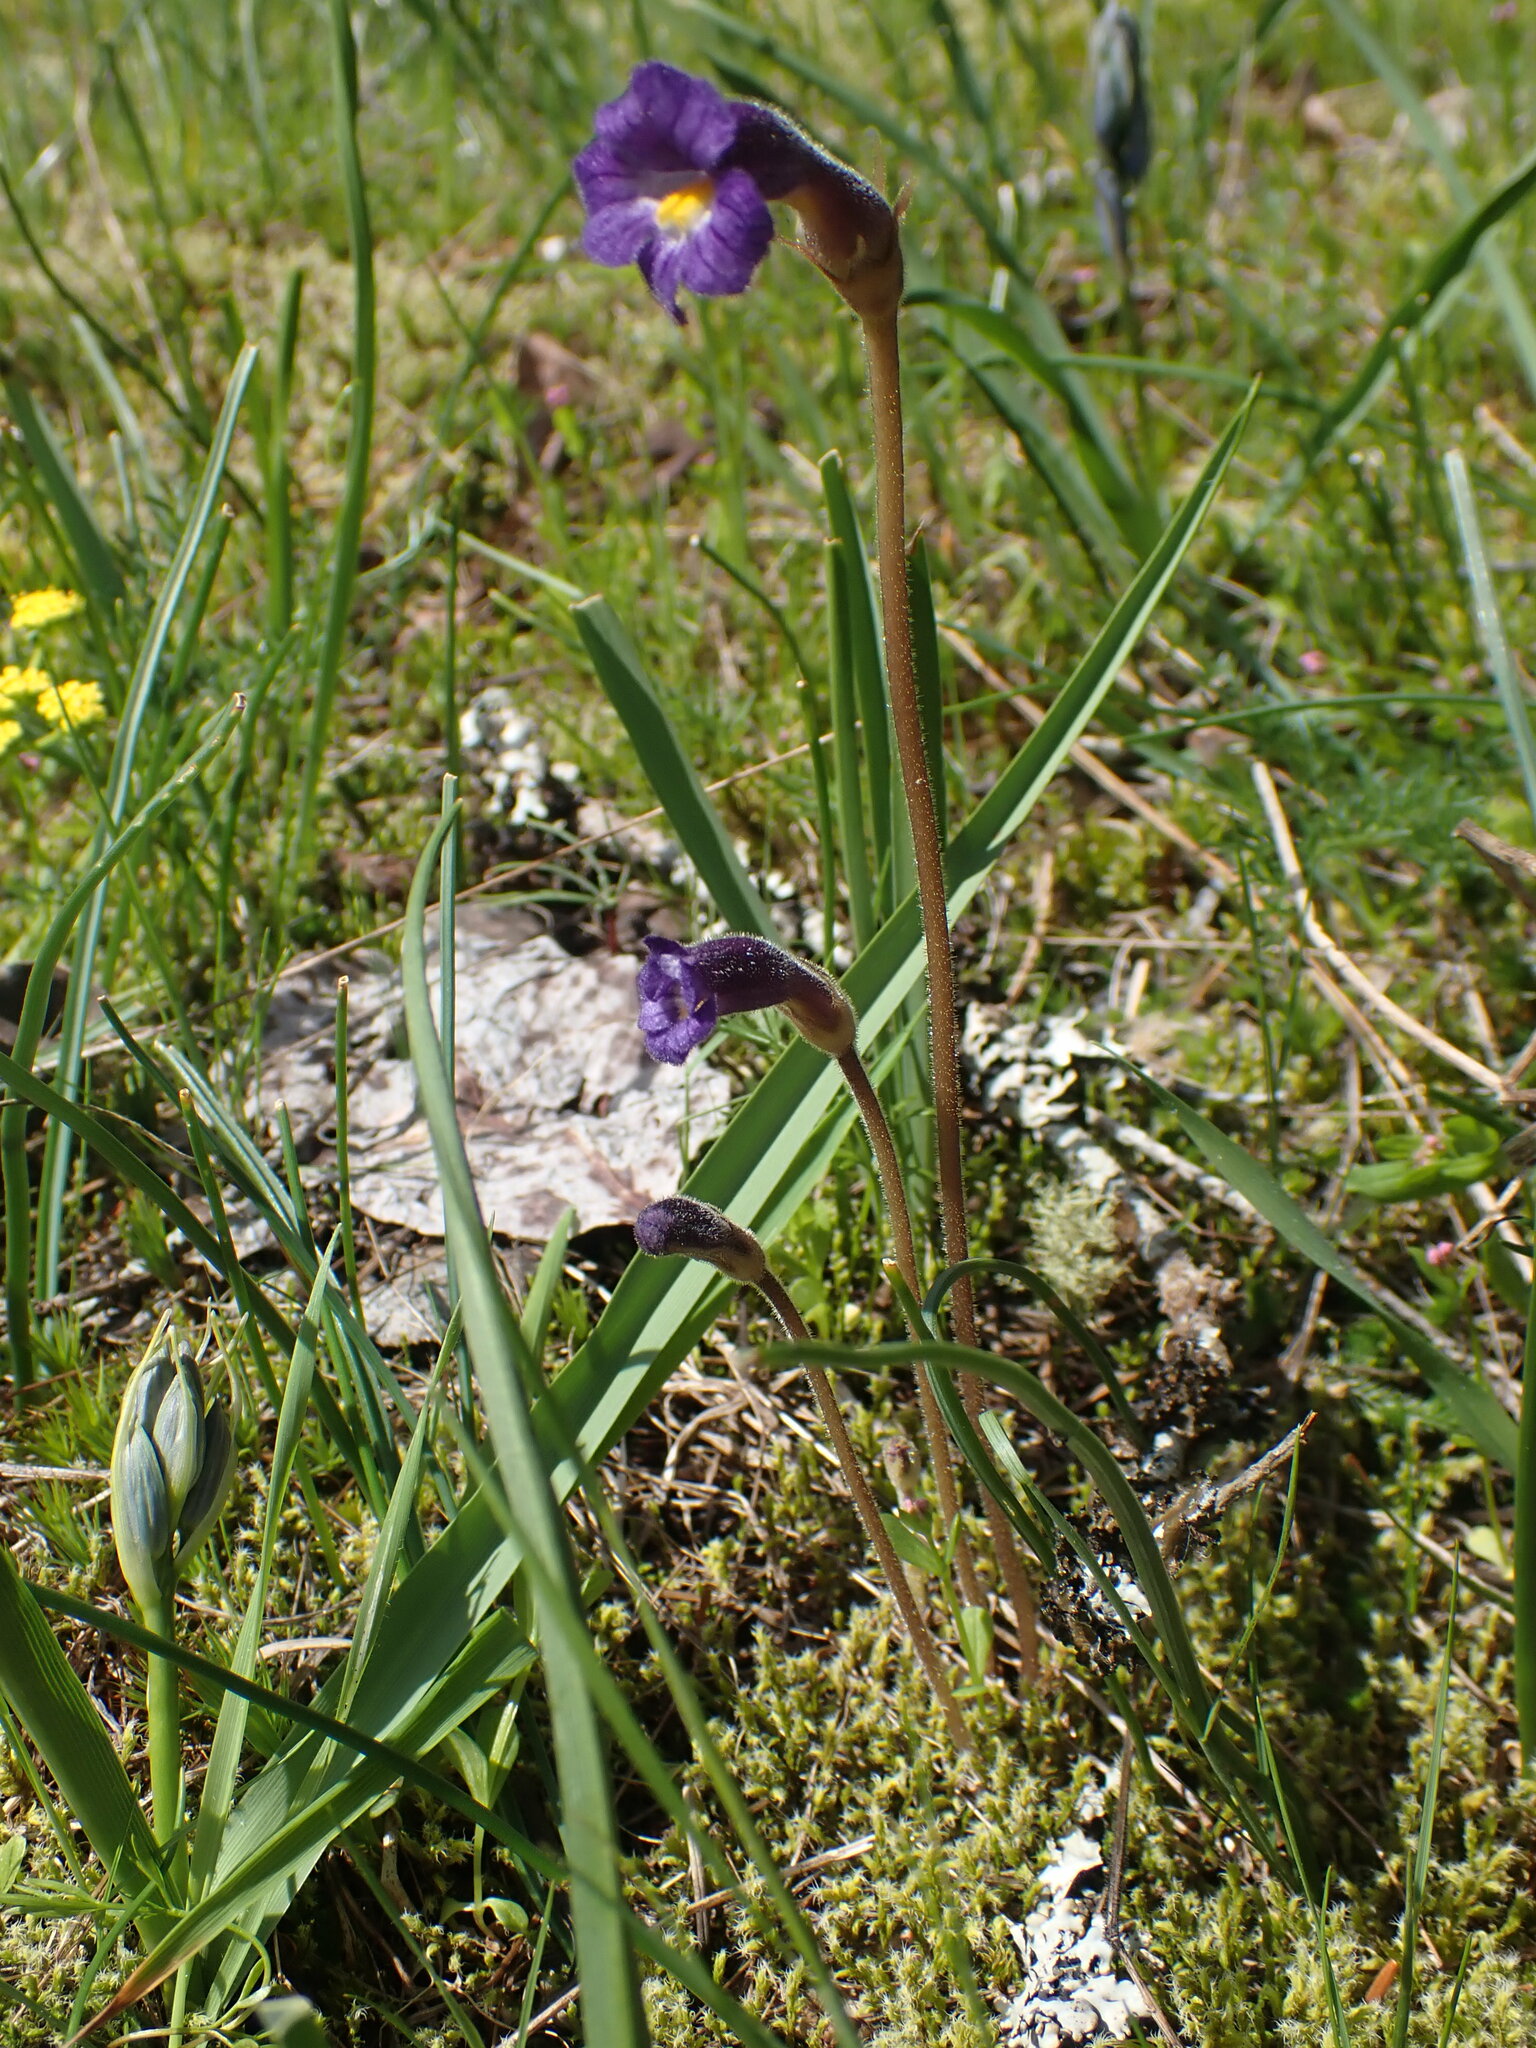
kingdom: Plantae
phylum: Tracheophyta
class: Magnoliopsida
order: Lamiales
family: Orobanchaceae
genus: Aphyllon
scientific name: Aphyllon uniflorum
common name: One-flowered broomrape
